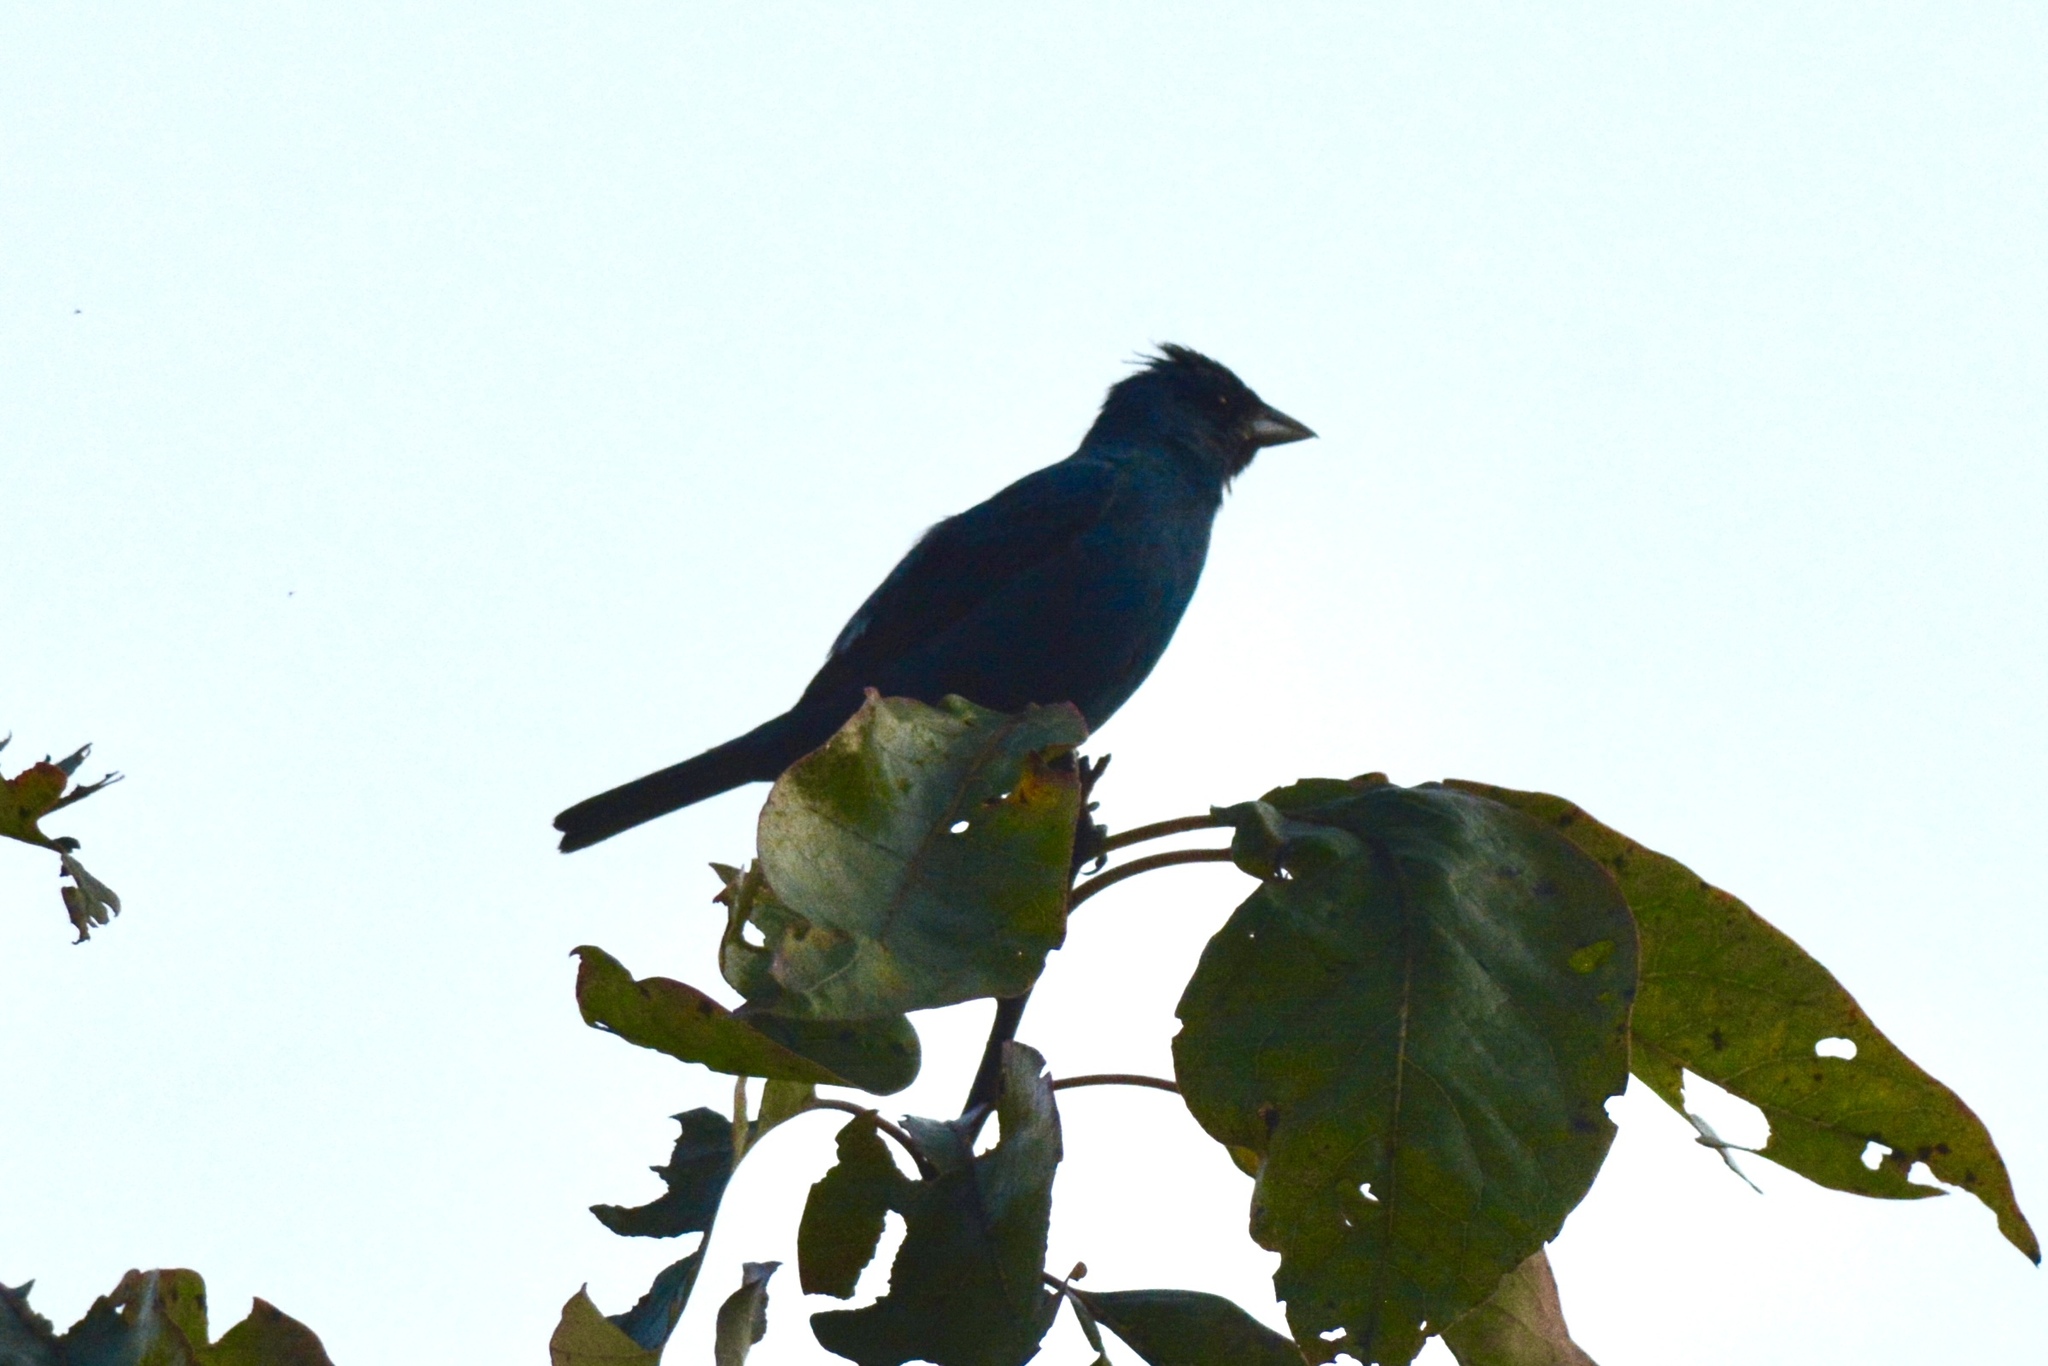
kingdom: Animalia
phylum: Chordata
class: Aves
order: Passeriformes
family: Cardinalidae
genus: Passerina
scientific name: Passerina cyanea
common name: Indigo bunting
